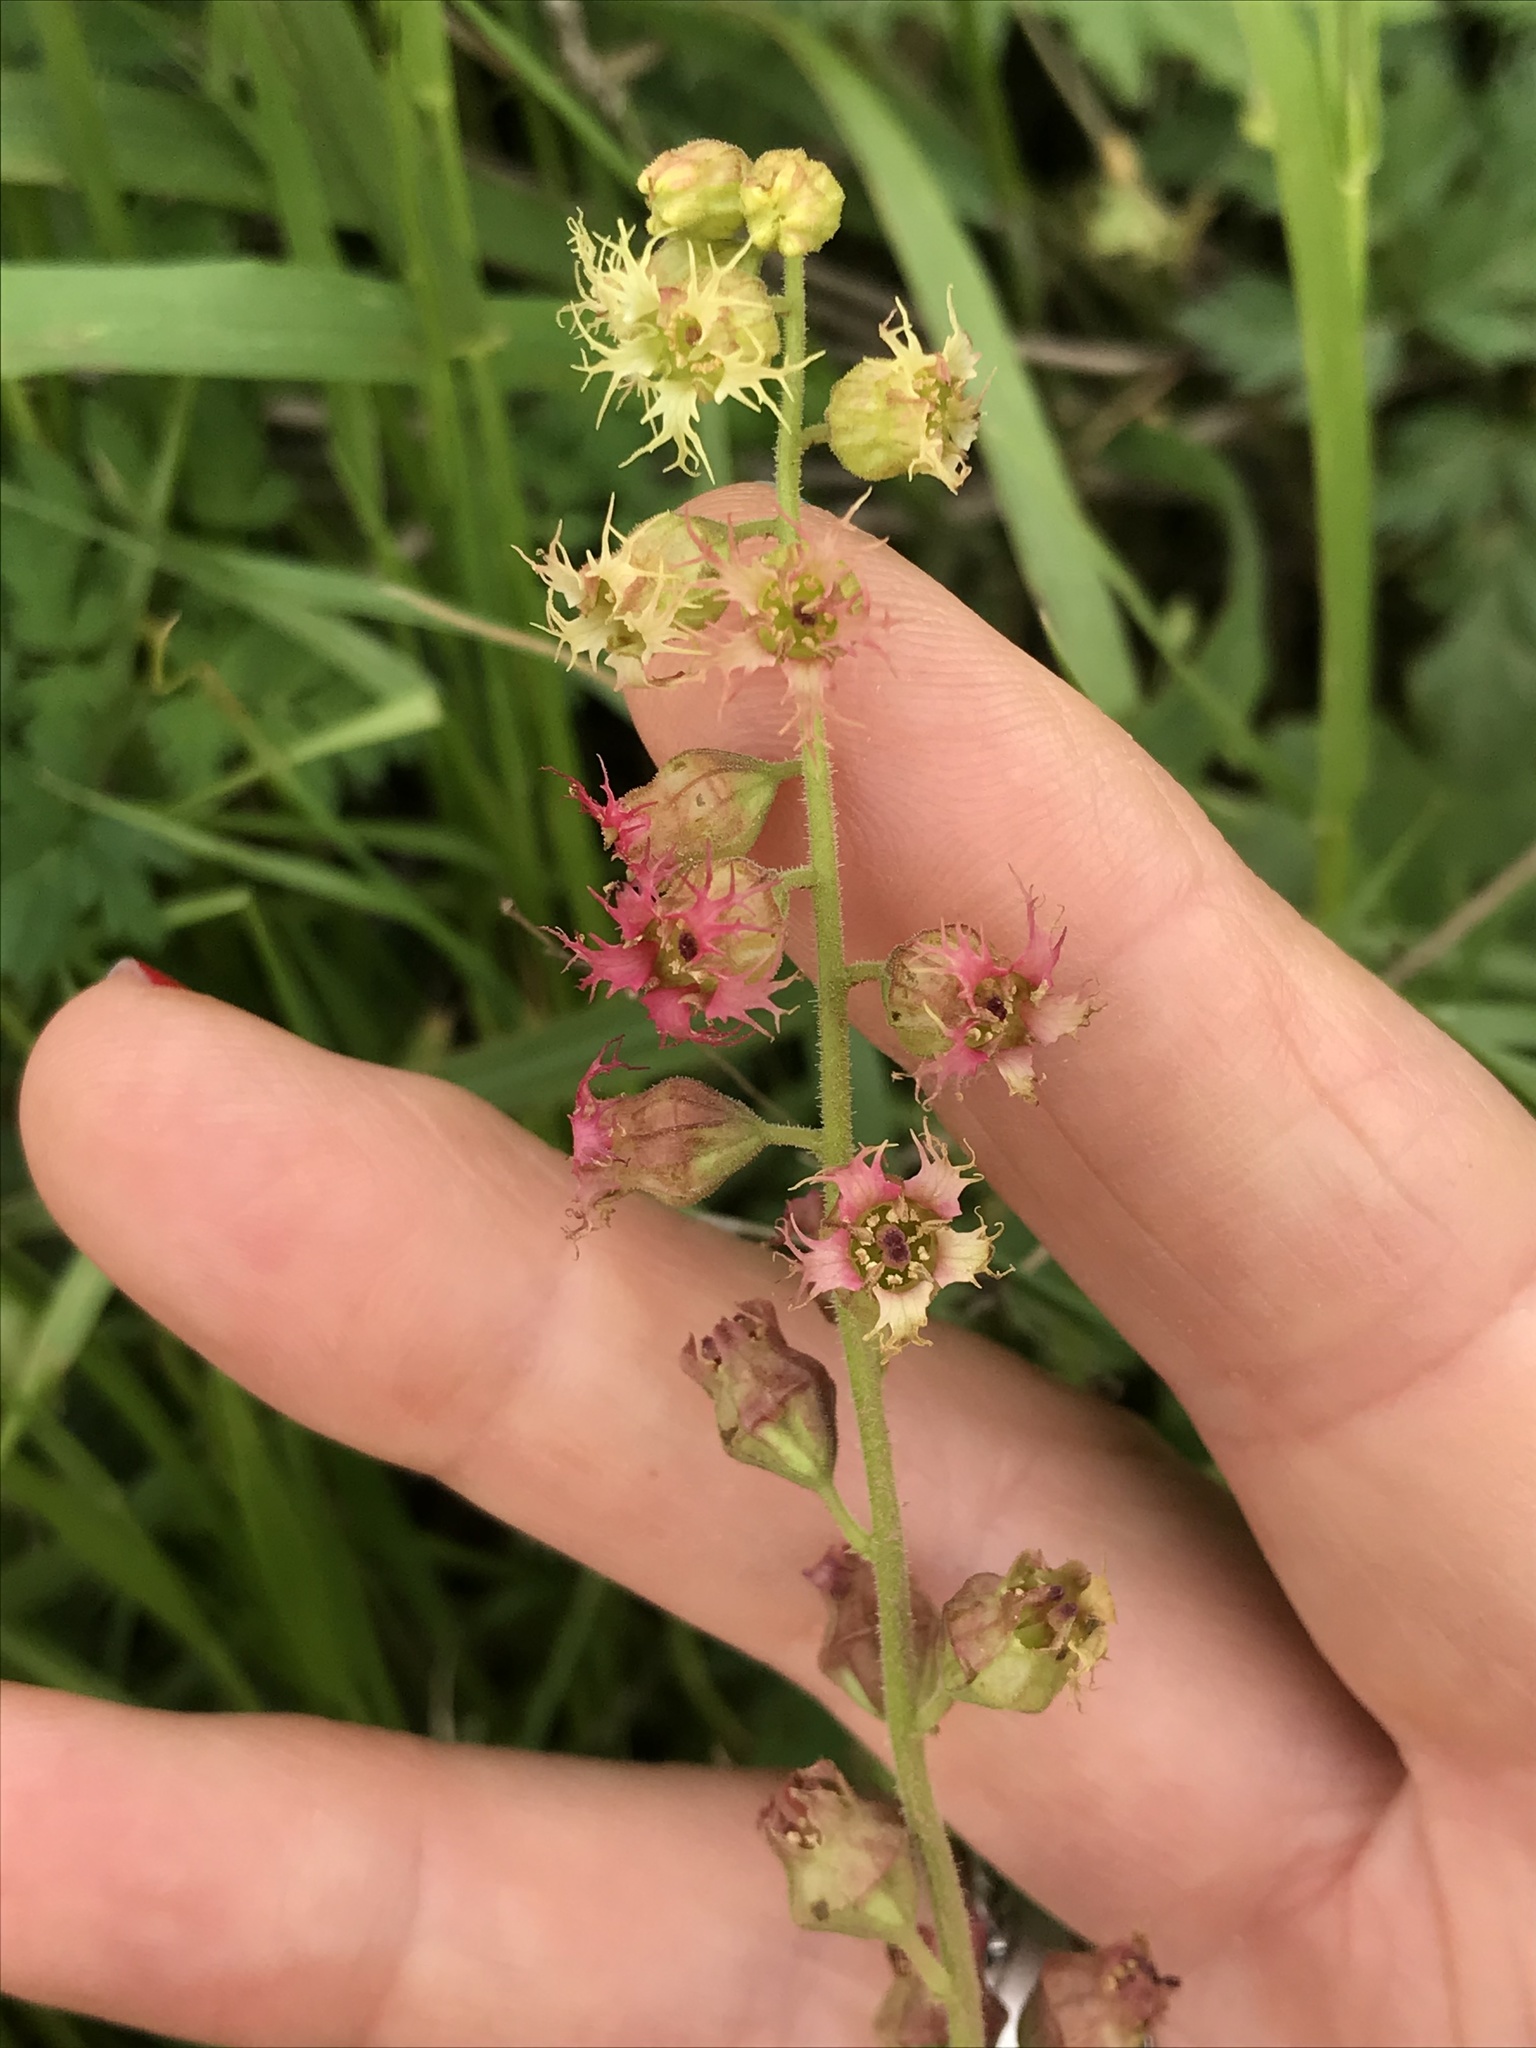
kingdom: Plantae
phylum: Tracheophyta
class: Magnoliopsida
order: Saxifragales
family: Saxifragaceae
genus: Tellima
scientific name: Tellima grandiflora
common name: Fringecups
